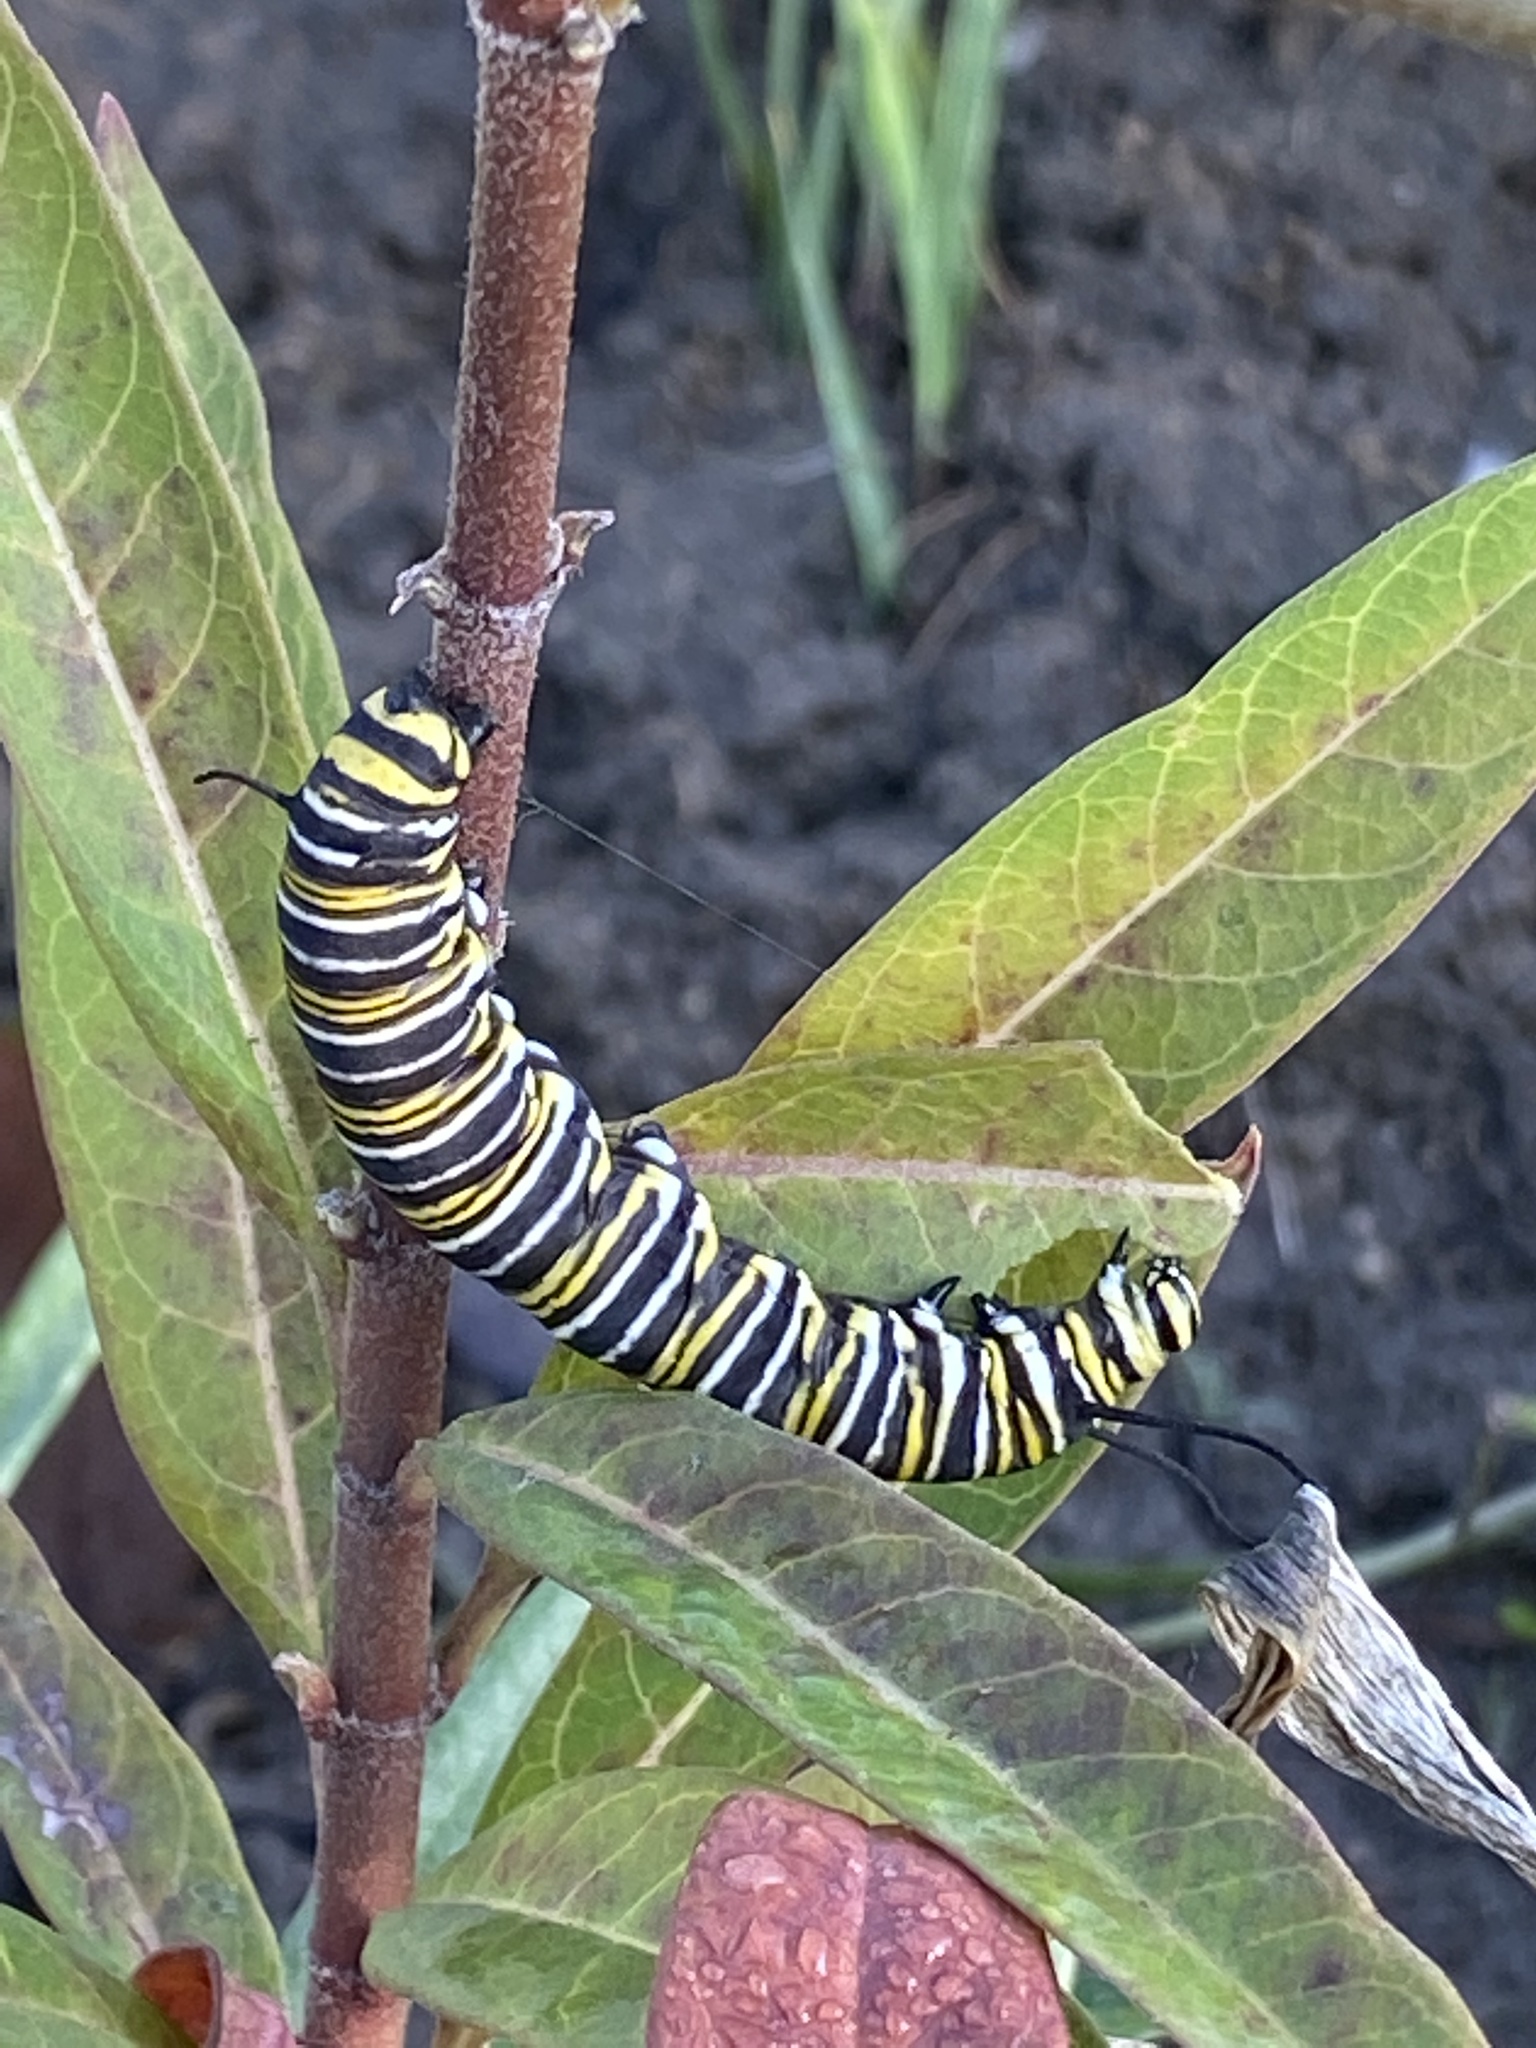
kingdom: Animalia
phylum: Arthropoda
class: Insecta
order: Lepidoptera
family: Nymphalidae
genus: Danaus
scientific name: Danaus plexippus
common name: Monarch
